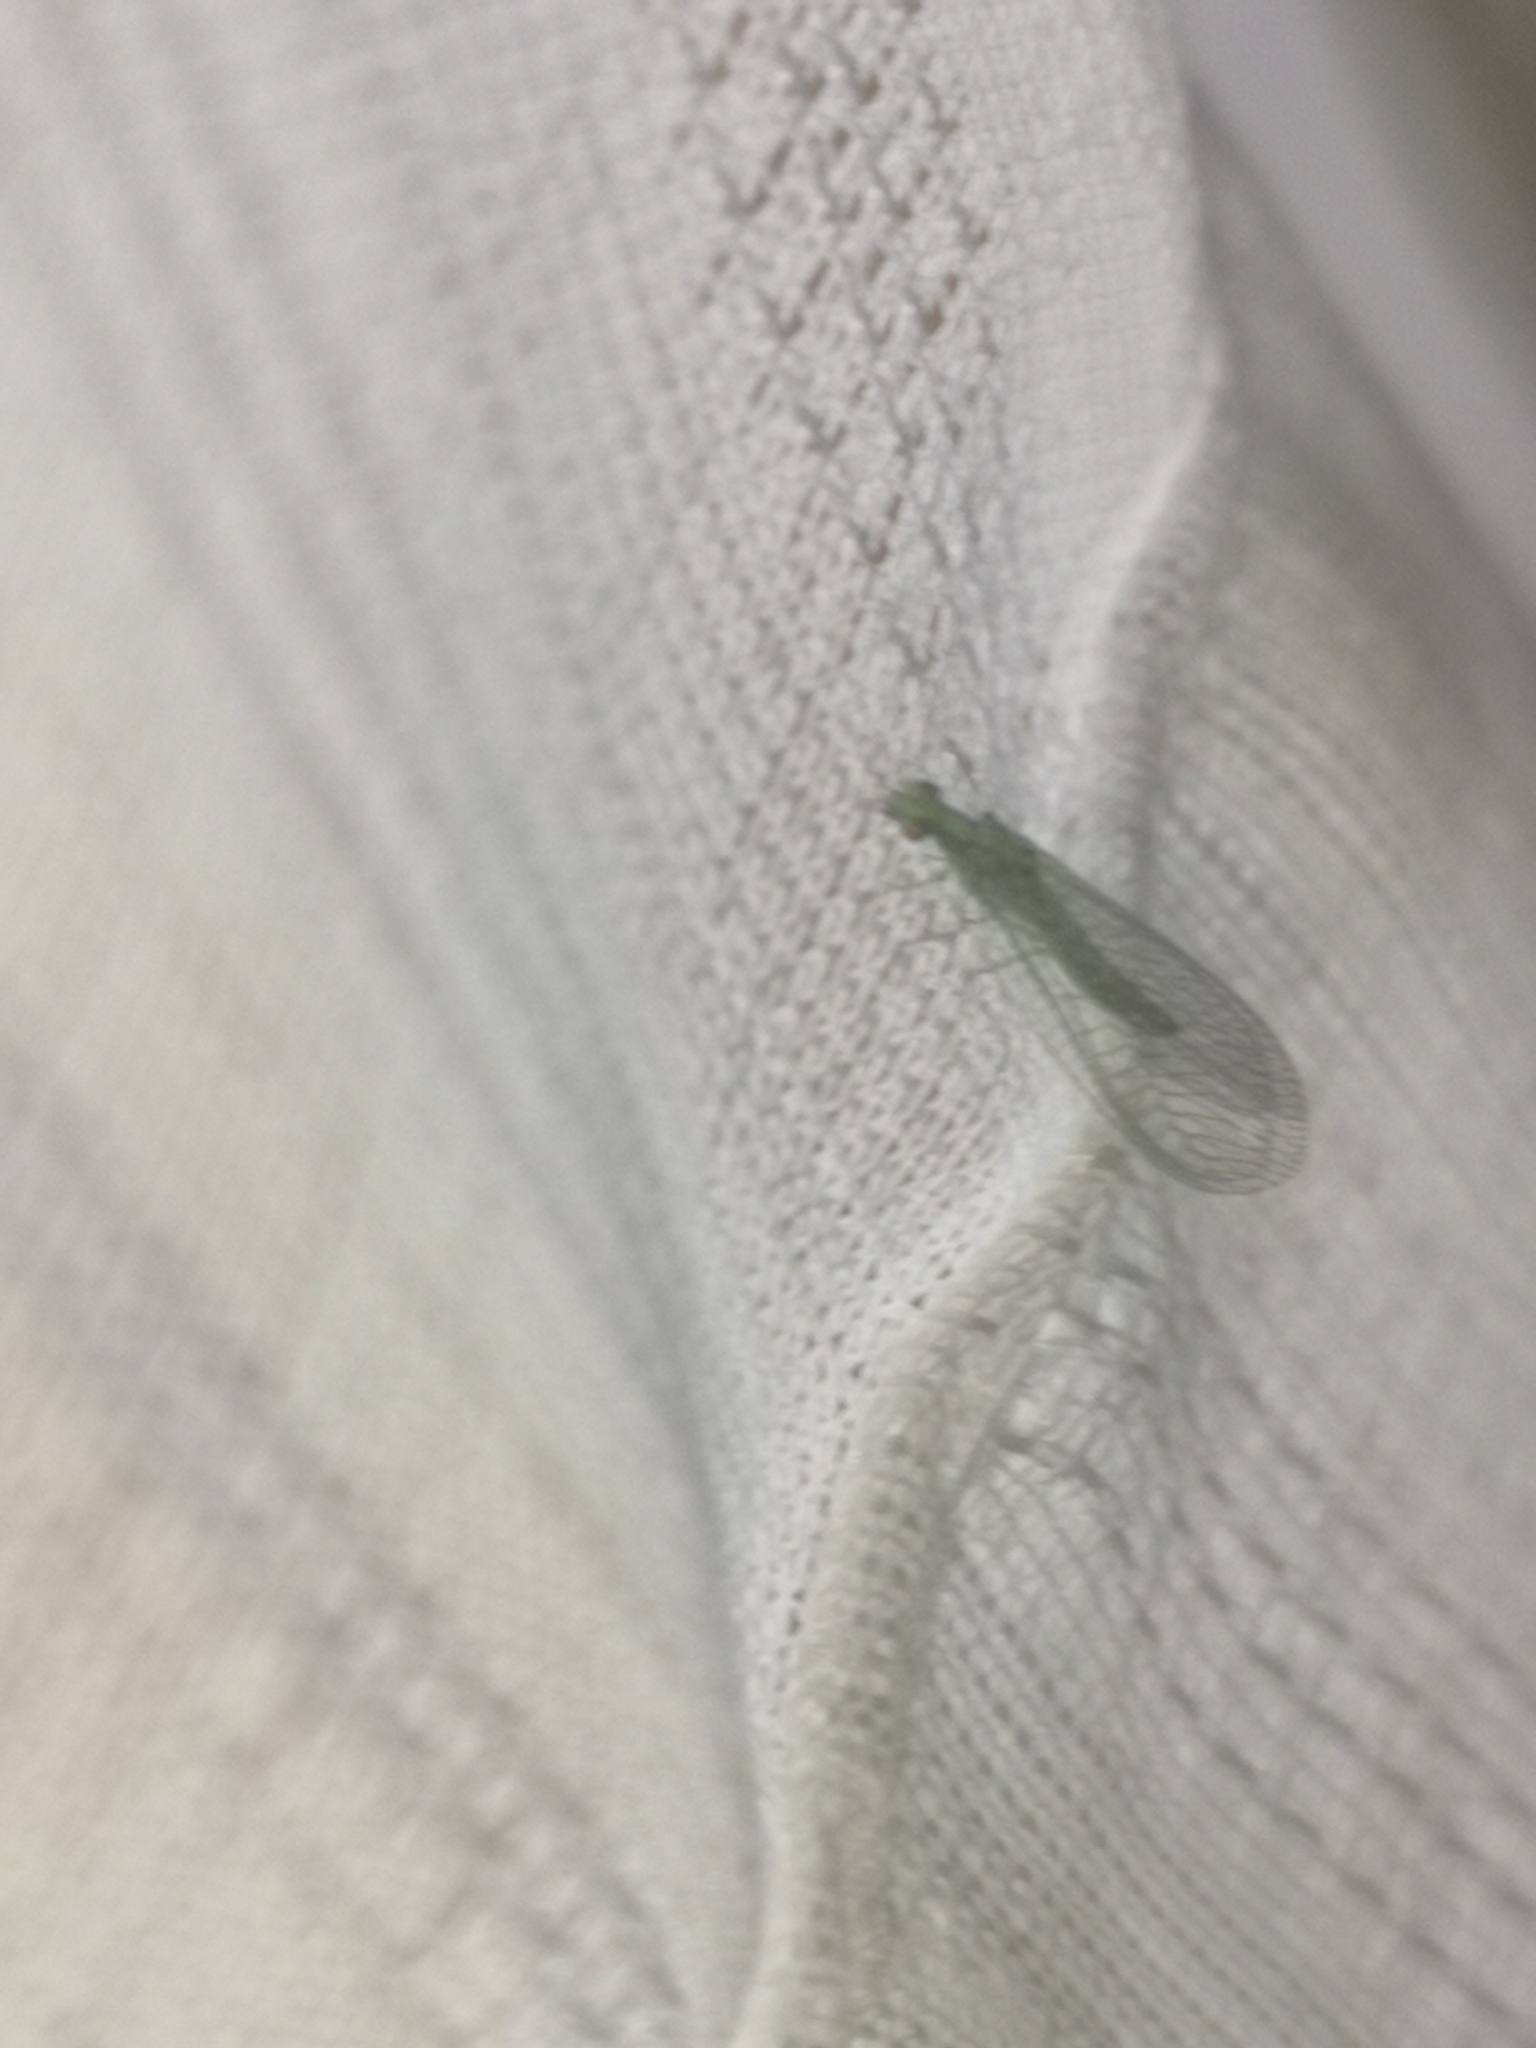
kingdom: Animalia
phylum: Arthropoda
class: Insecta
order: Neuroptera
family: Chrysopidae
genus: Pseudomallada
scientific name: Pseudomallada subcostalis
